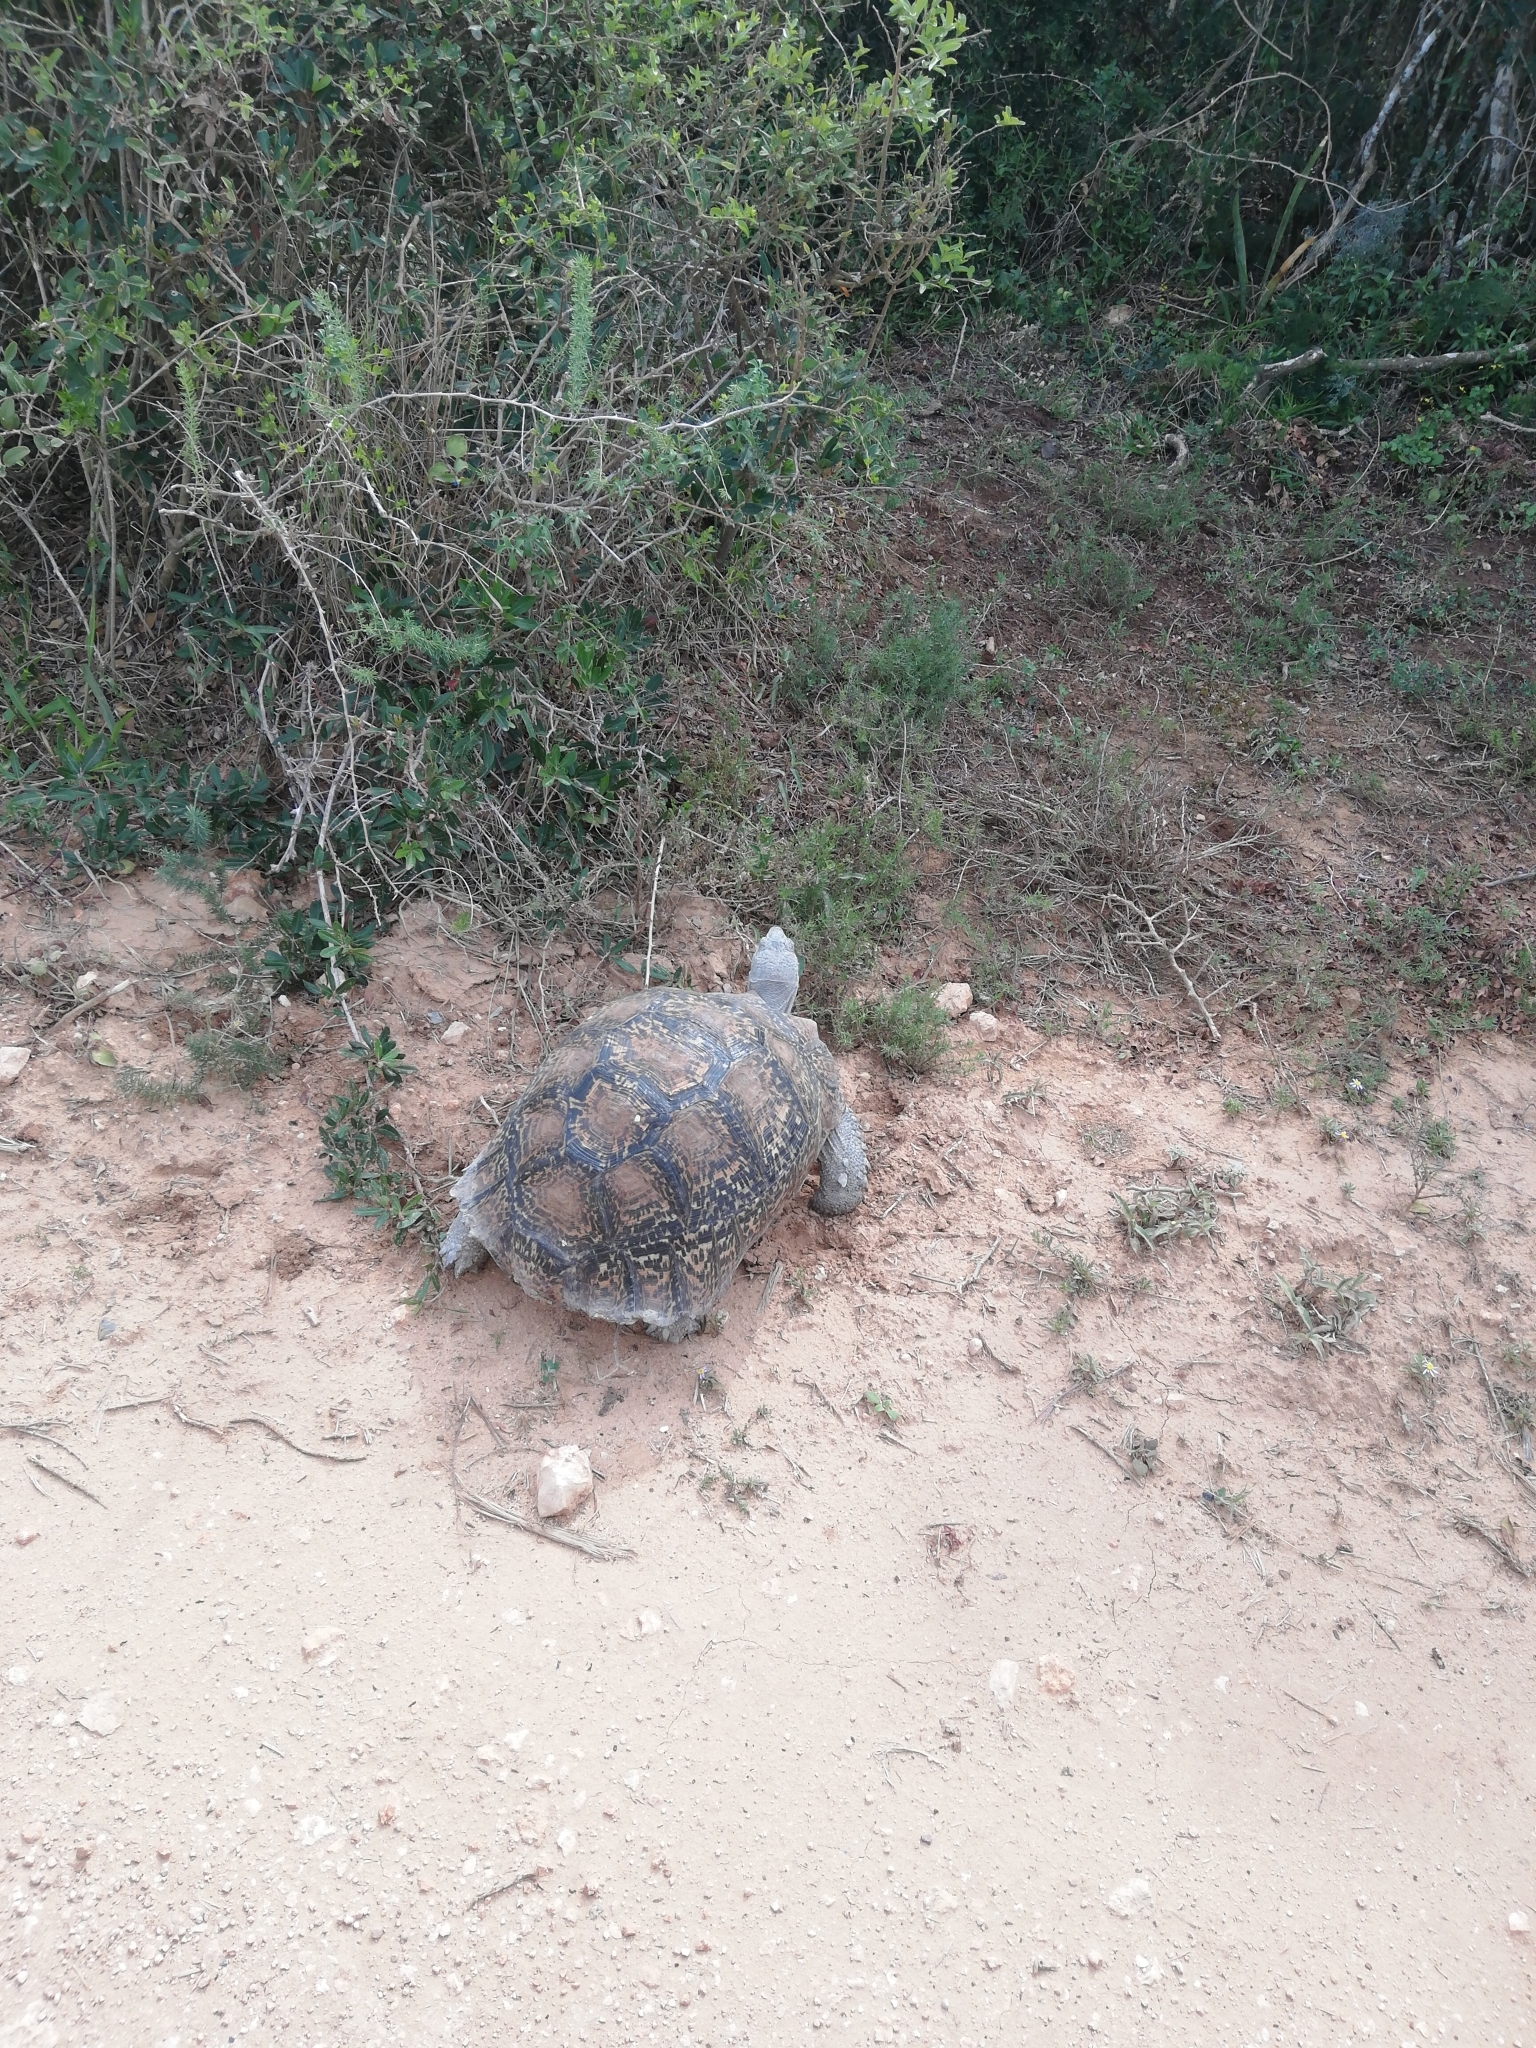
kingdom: Animalia
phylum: Chordata
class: Testudines
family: Testudinidae
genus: Stigmochelys
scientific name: Stigmochelys pardalis
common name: Leopard tortoise
